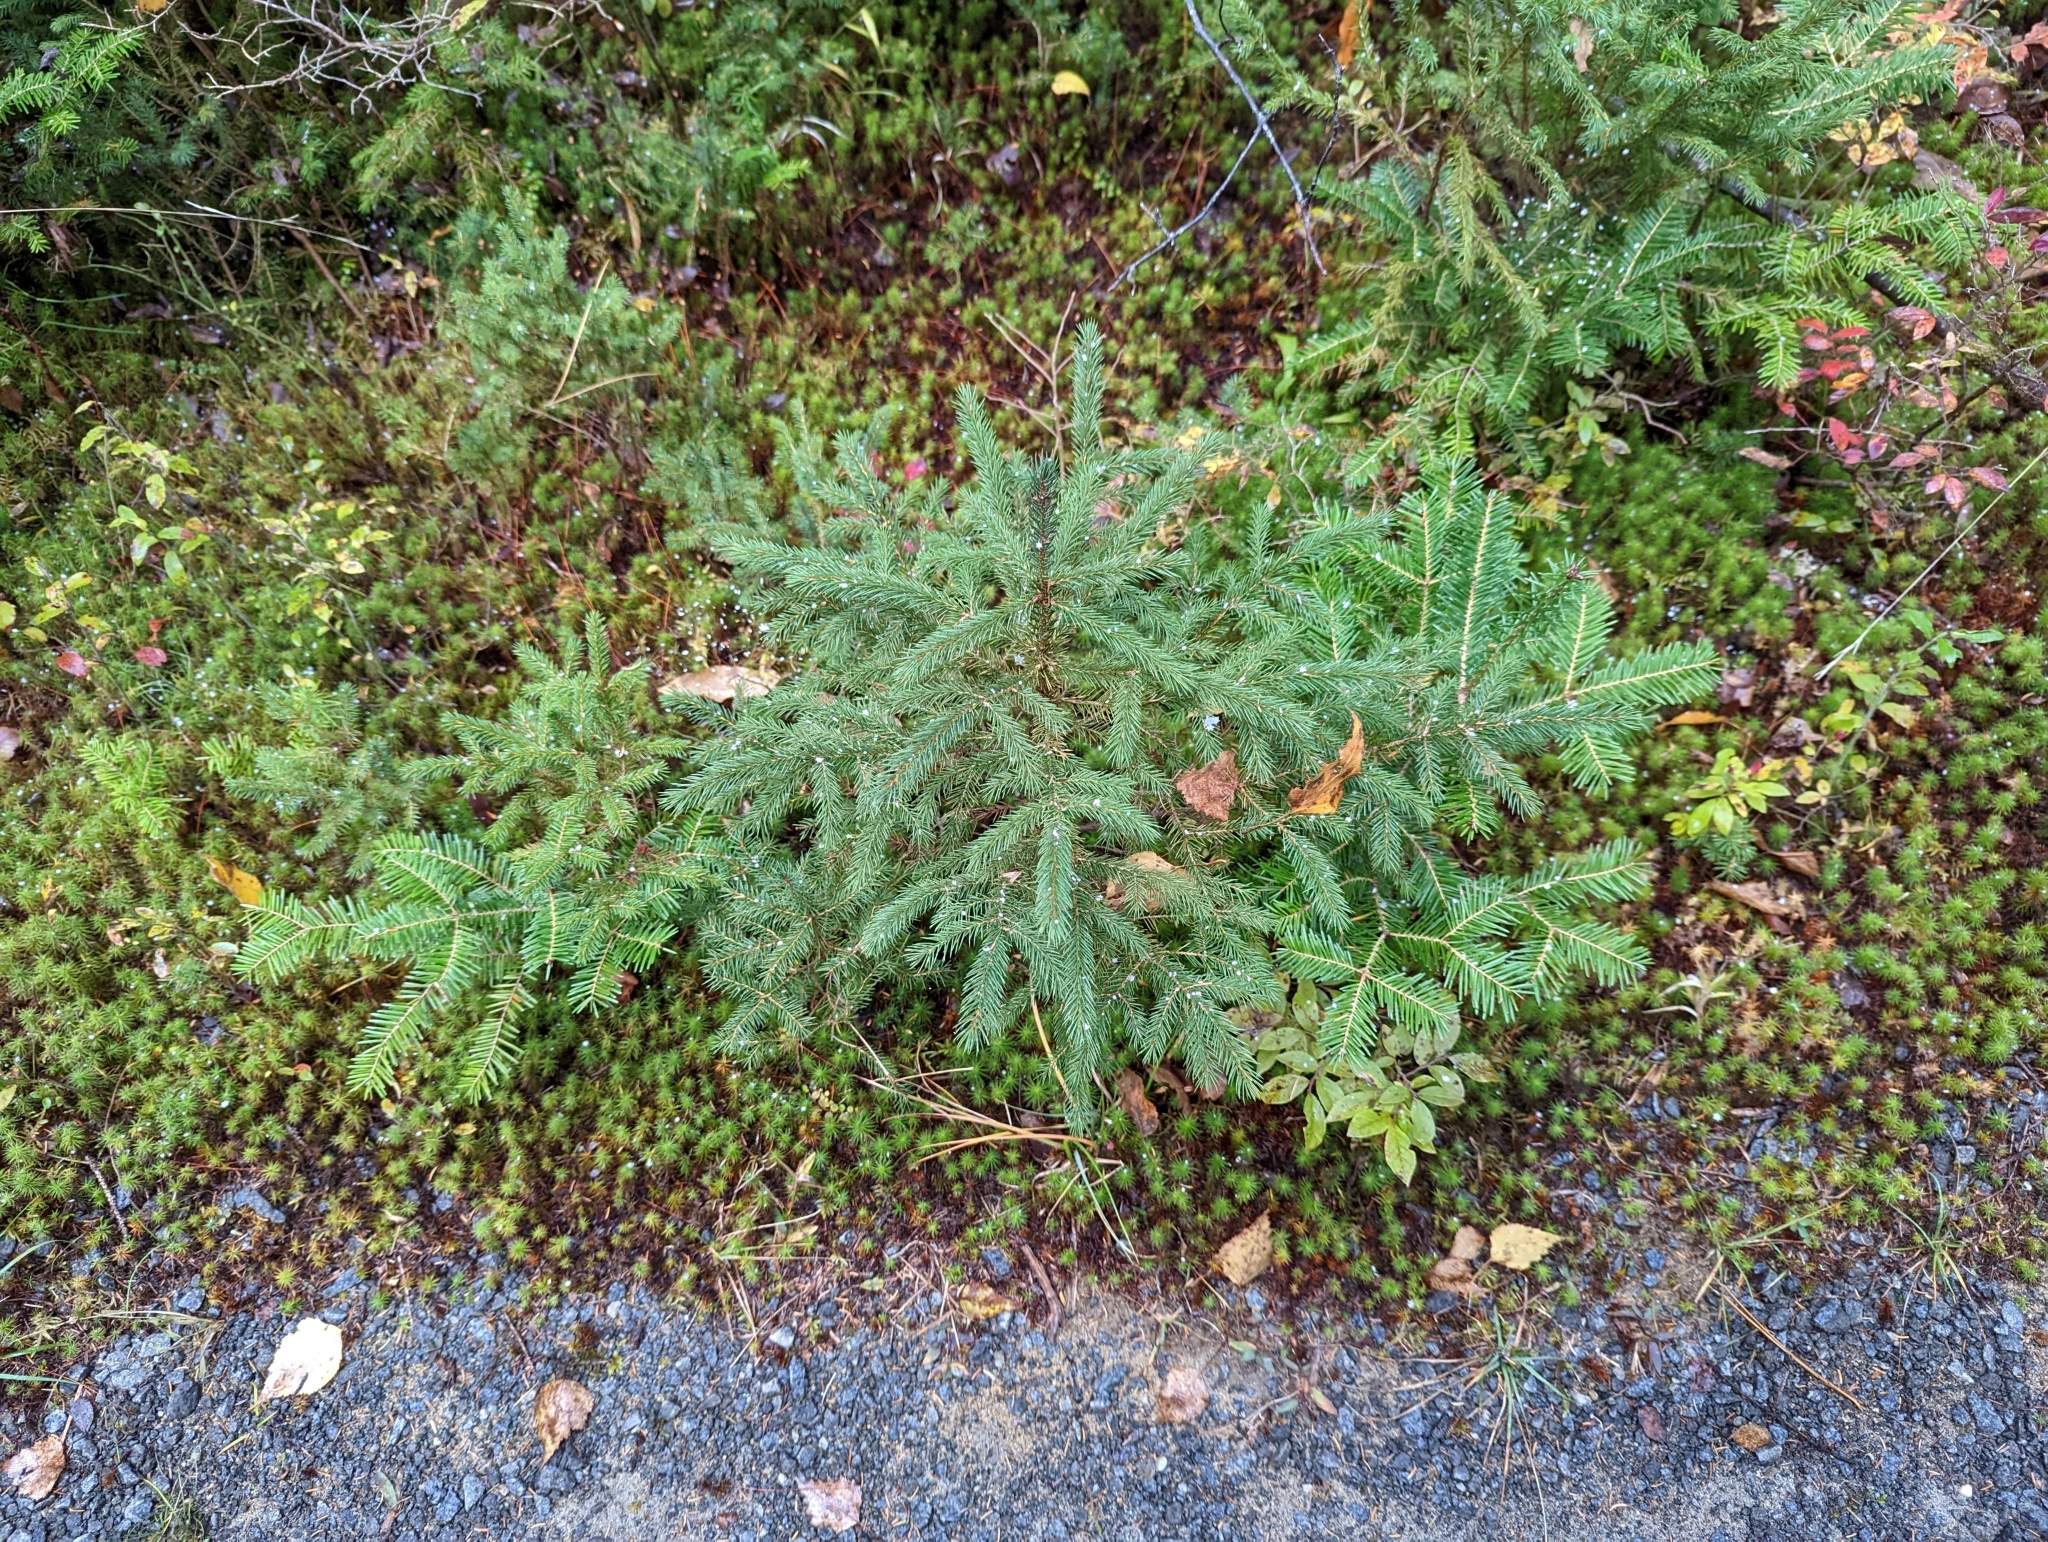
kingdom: Plantae
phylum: Tracheophyta
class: Pinopsida
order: Pinales
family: Pinaceae
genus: Picea
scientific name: Picea rubens
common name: Red spruce
